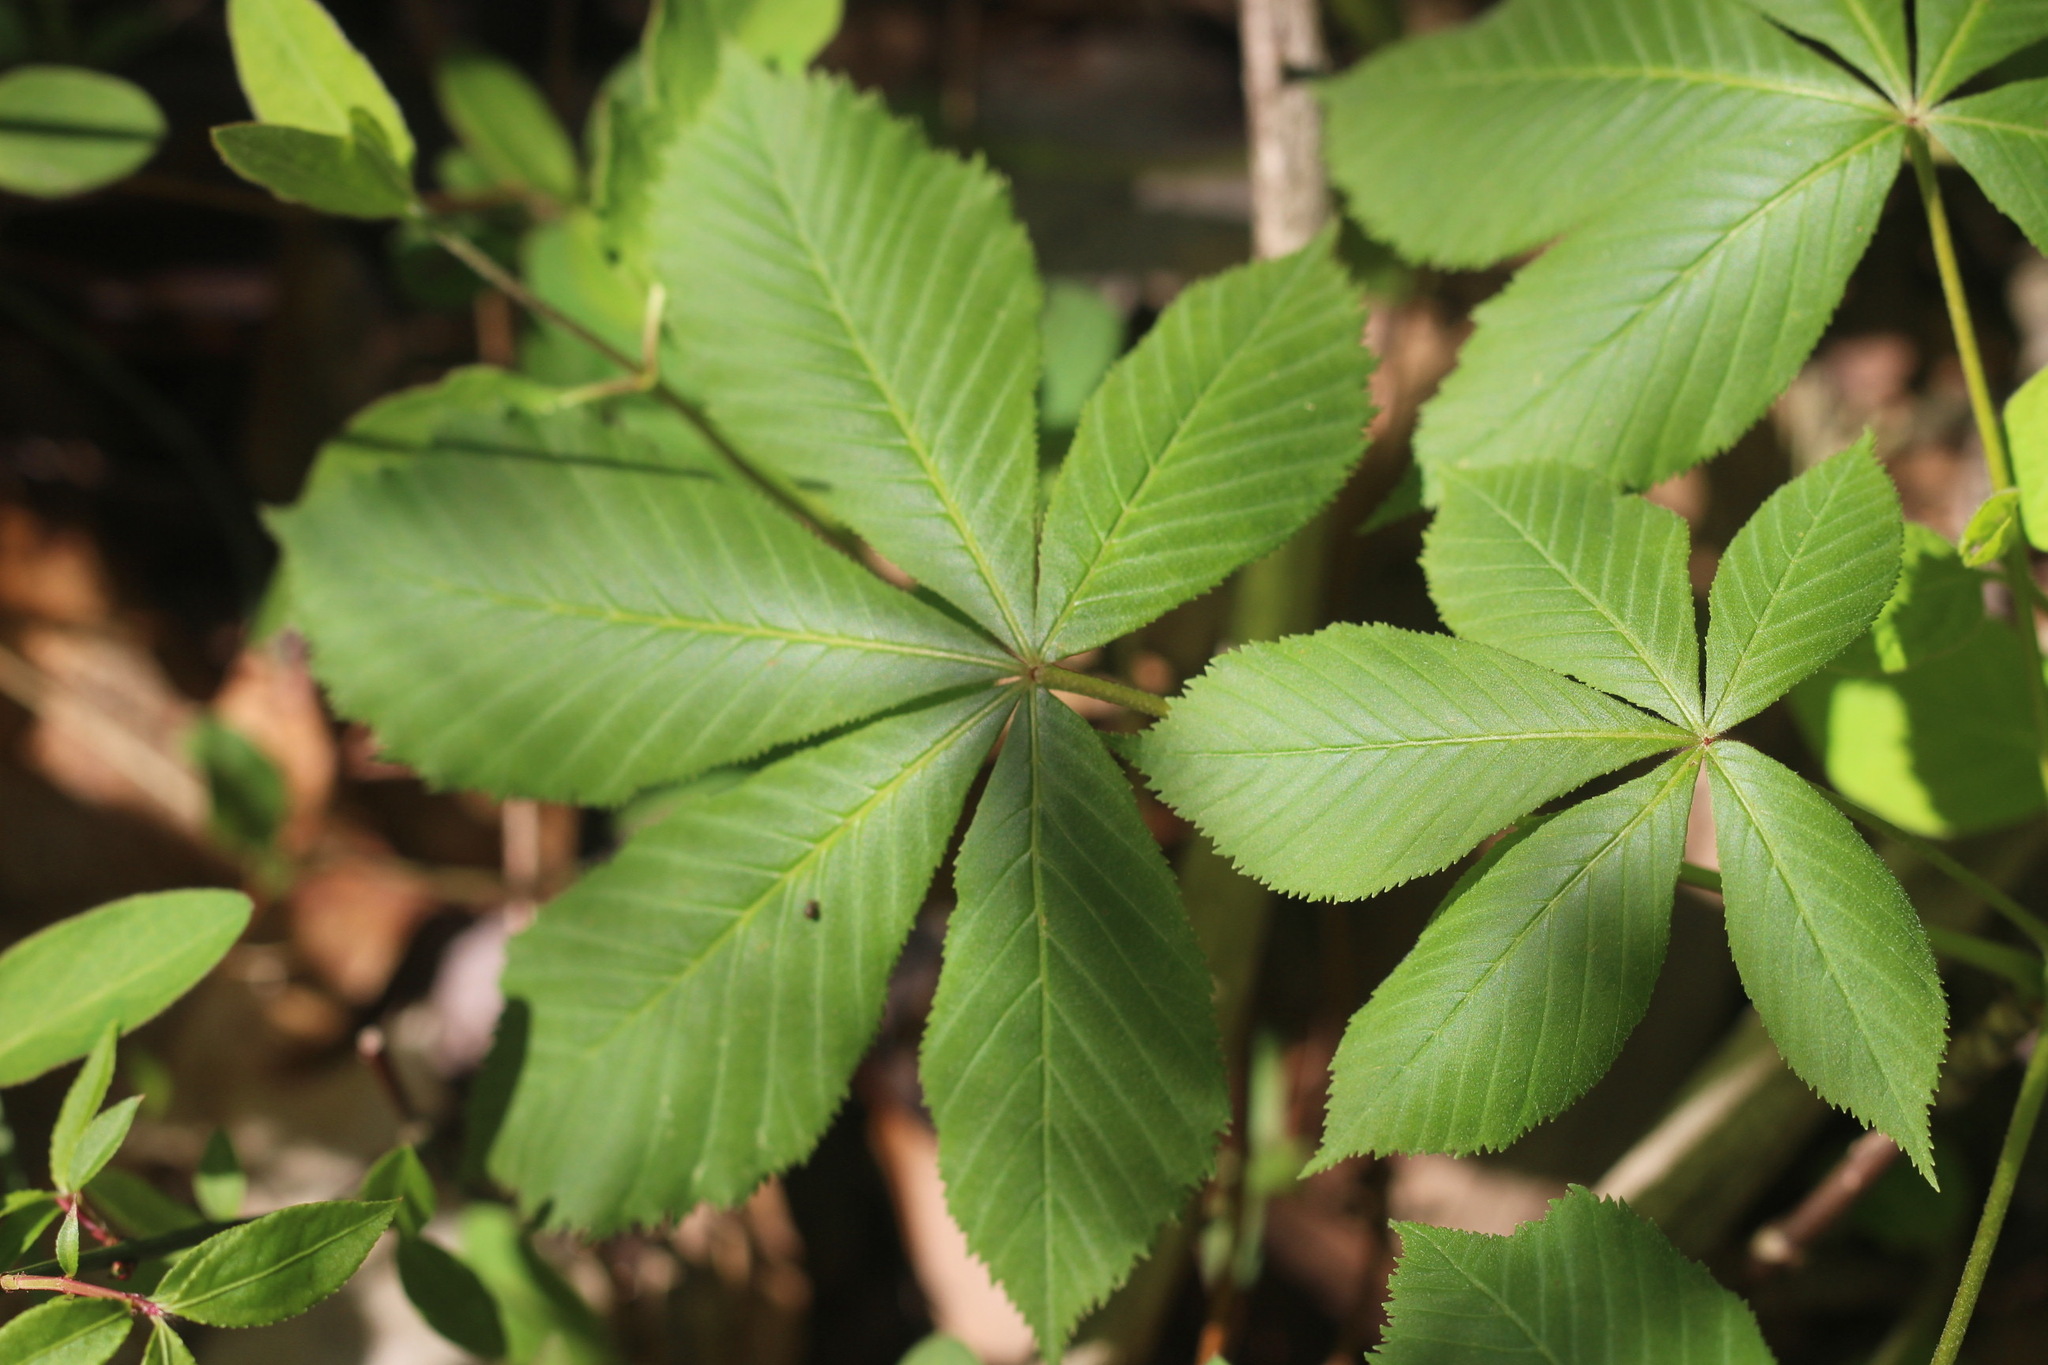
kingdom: Plantae
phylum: Tracheophyta
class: Magnoliopsida
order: Sapindales
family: Sapindaceae
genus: Aesculus
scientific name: Aesculus glabra
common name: Ohio buckeye
